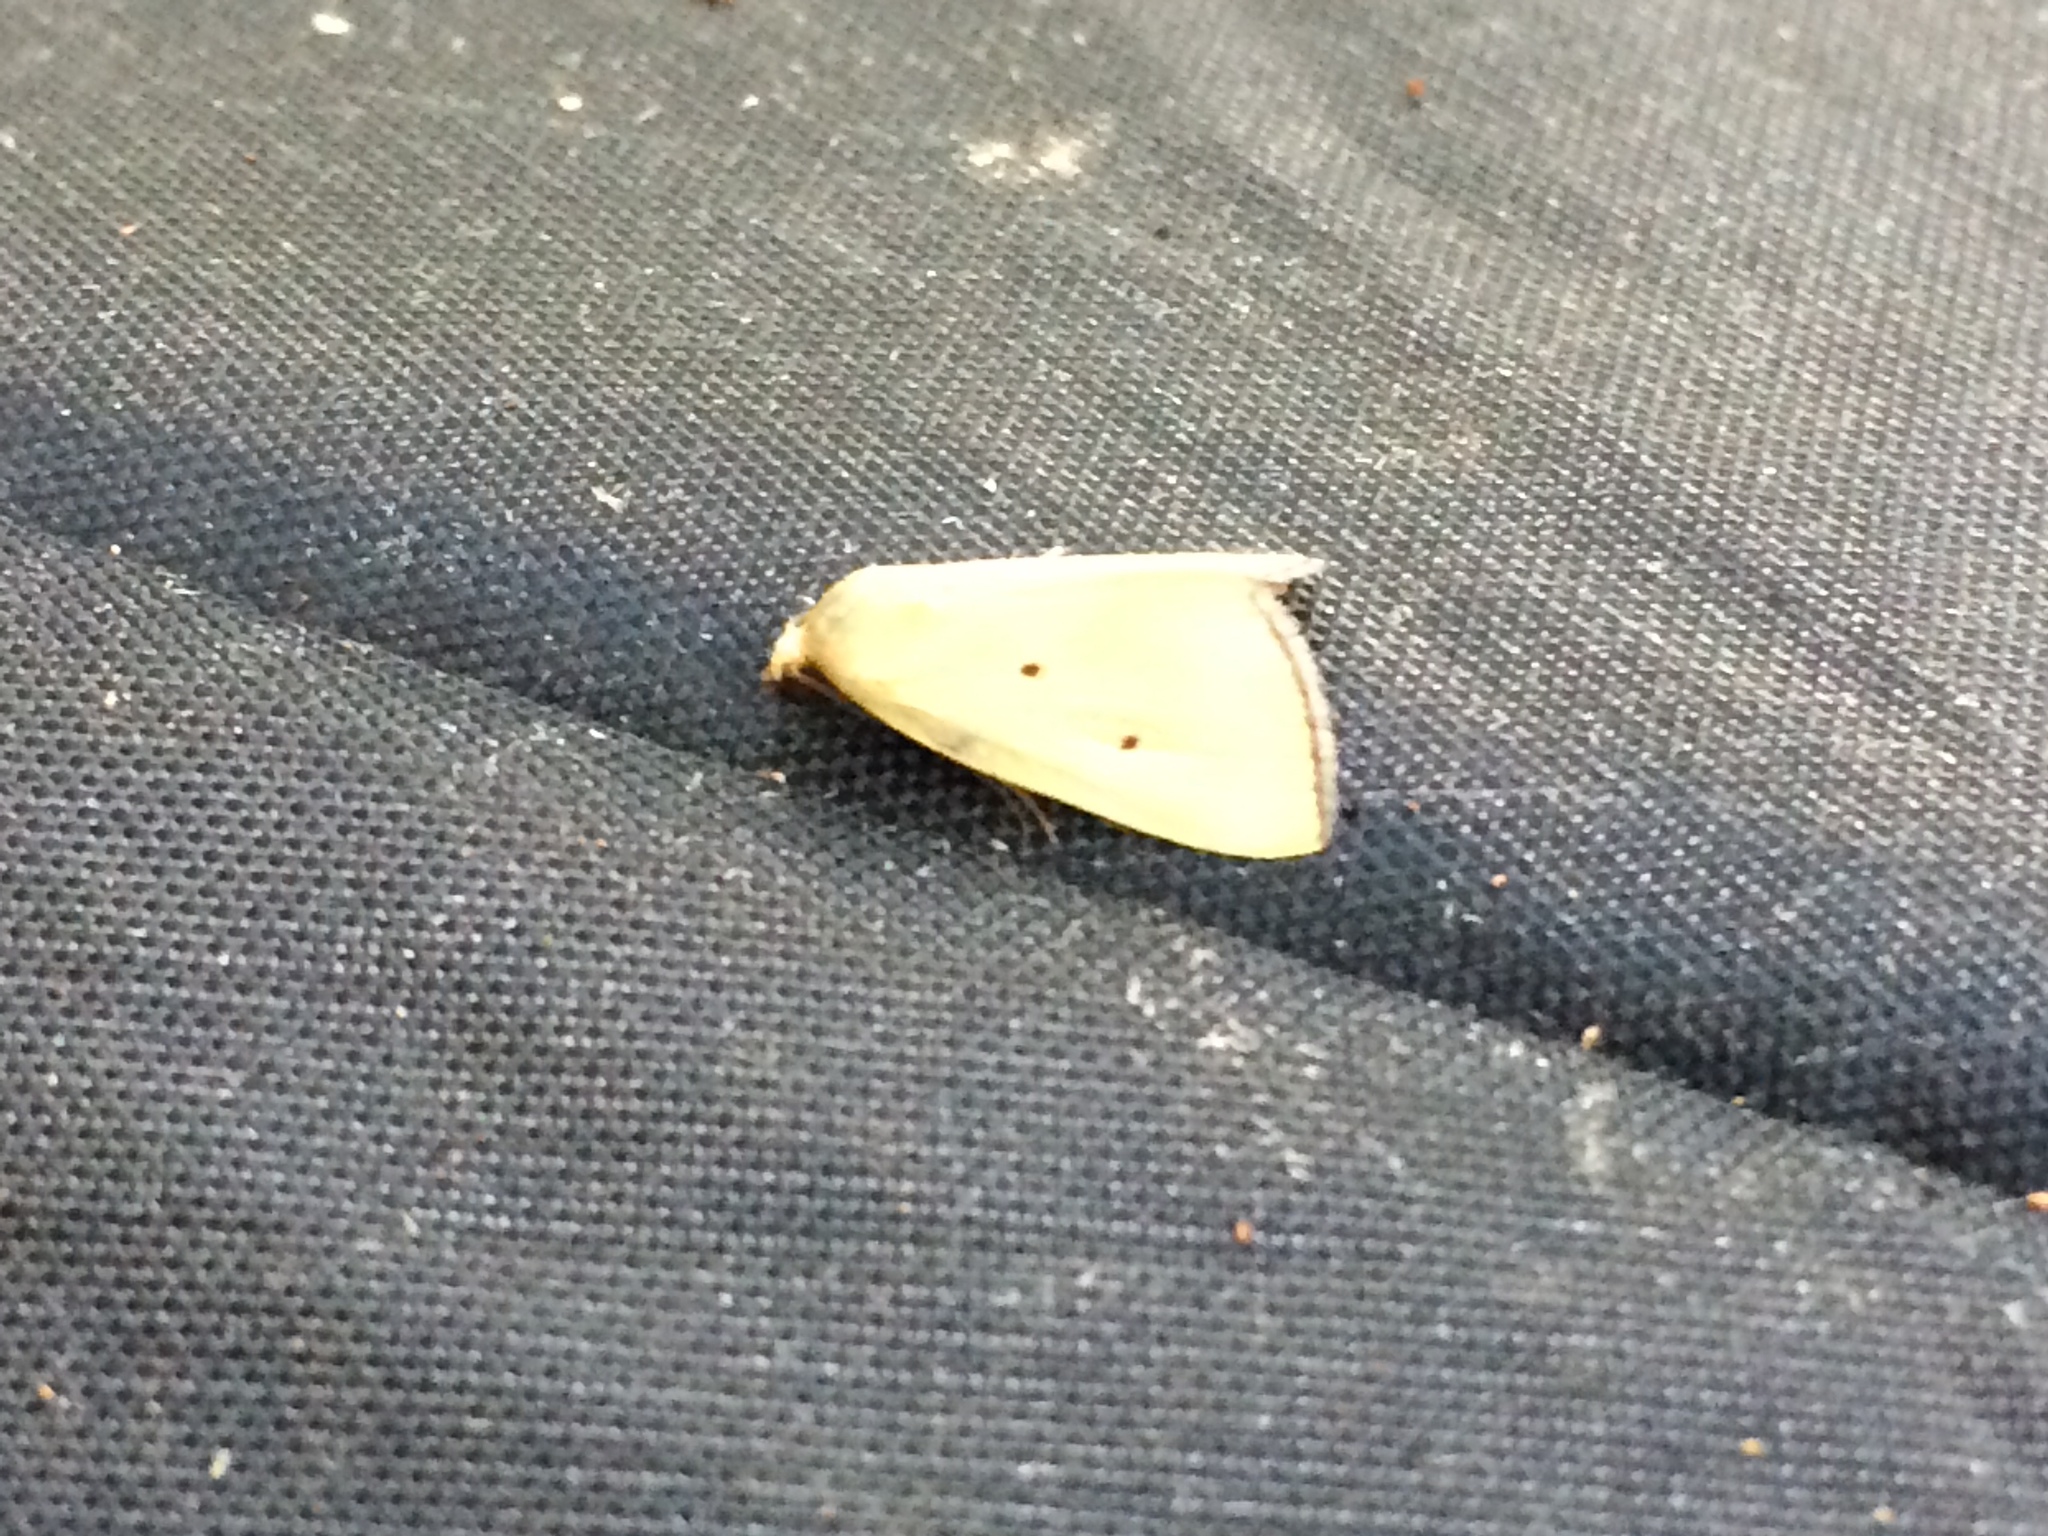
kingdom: Animalia
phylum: Arthropoda
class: Insecta
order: Lepidoptera
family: Noctuidae
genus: Marimatha
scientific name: Marimatha nigrofimbria
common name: Black-bordered lemon moth
